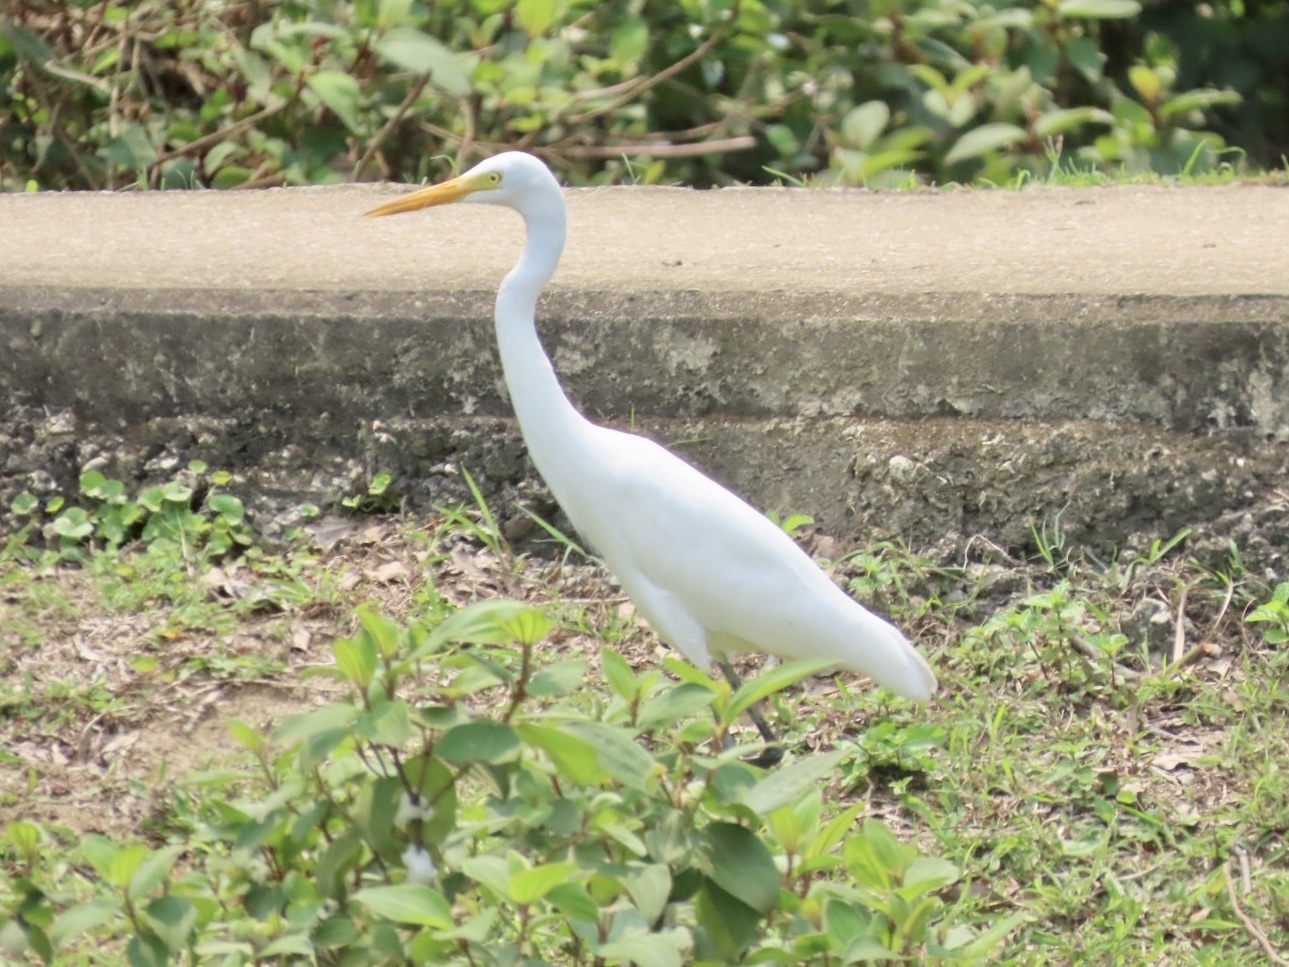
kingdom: Animalia
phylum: Chordata
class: Aves
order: Pelecaniformes
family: Ardeidae
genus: Egretta
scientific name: Egretta intermedia
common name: Intermediate egret
